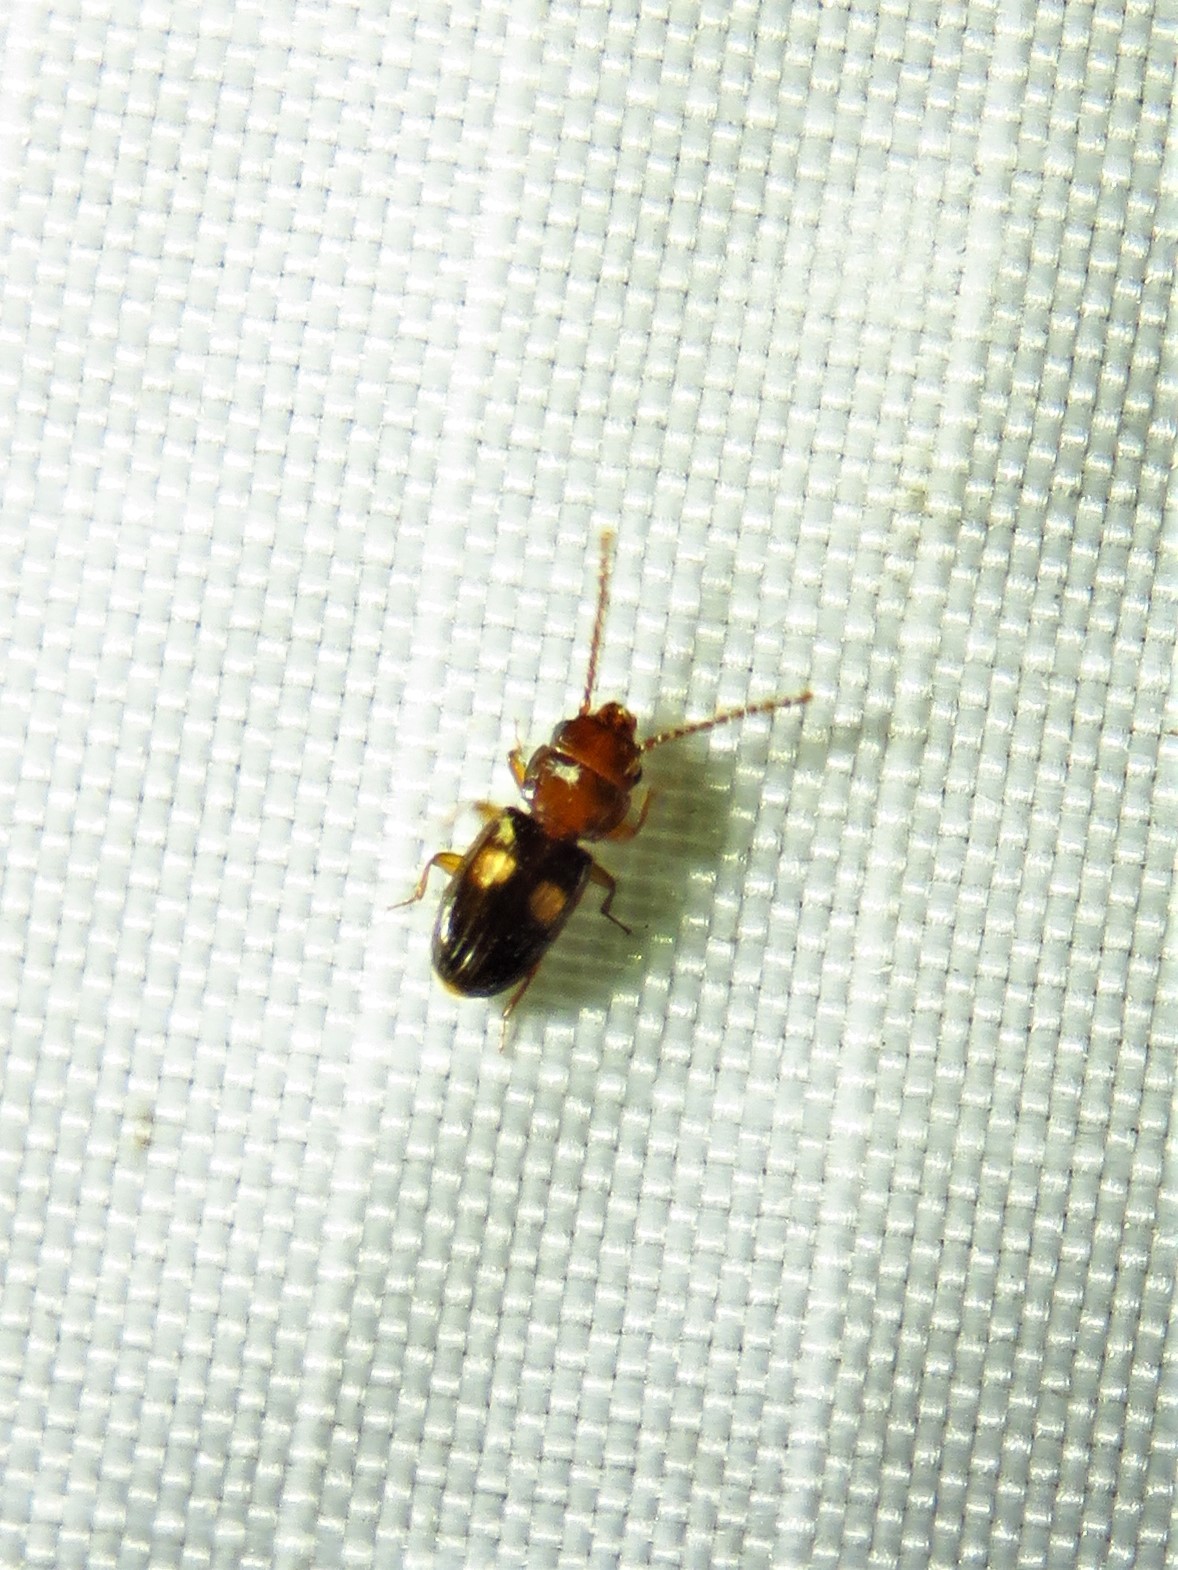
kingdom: Animalia
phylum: Arthropoda
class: Insecta
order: Coleoptera
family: Laemophloeidae
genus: Laemophloeus
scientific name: Laemophloeus fasciatus
